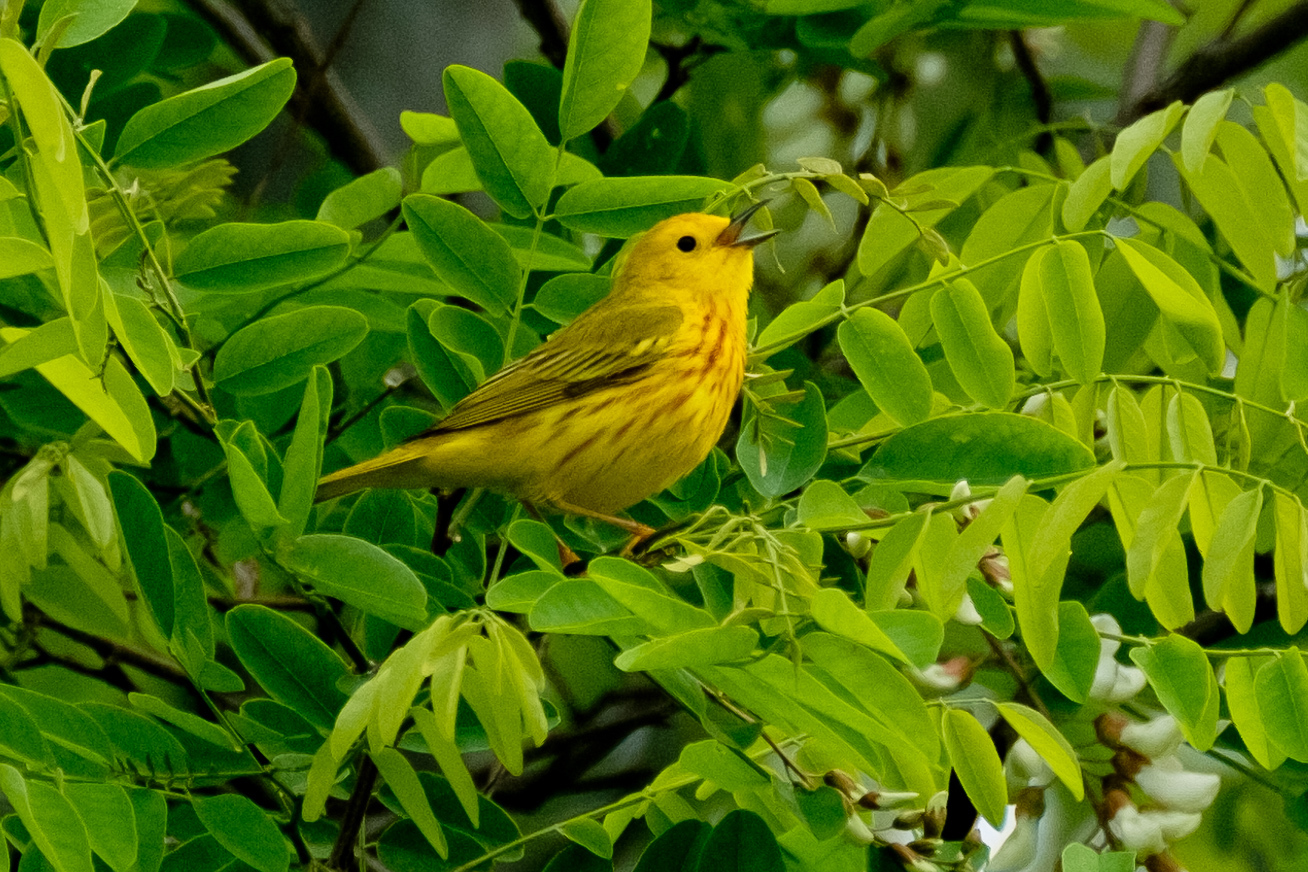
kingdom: Animalia
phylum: Chordata
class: Aves
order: Passeriformes
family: Parulidae
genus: Setophaga
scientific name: Setophaga petechia
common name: Yellow warbler
